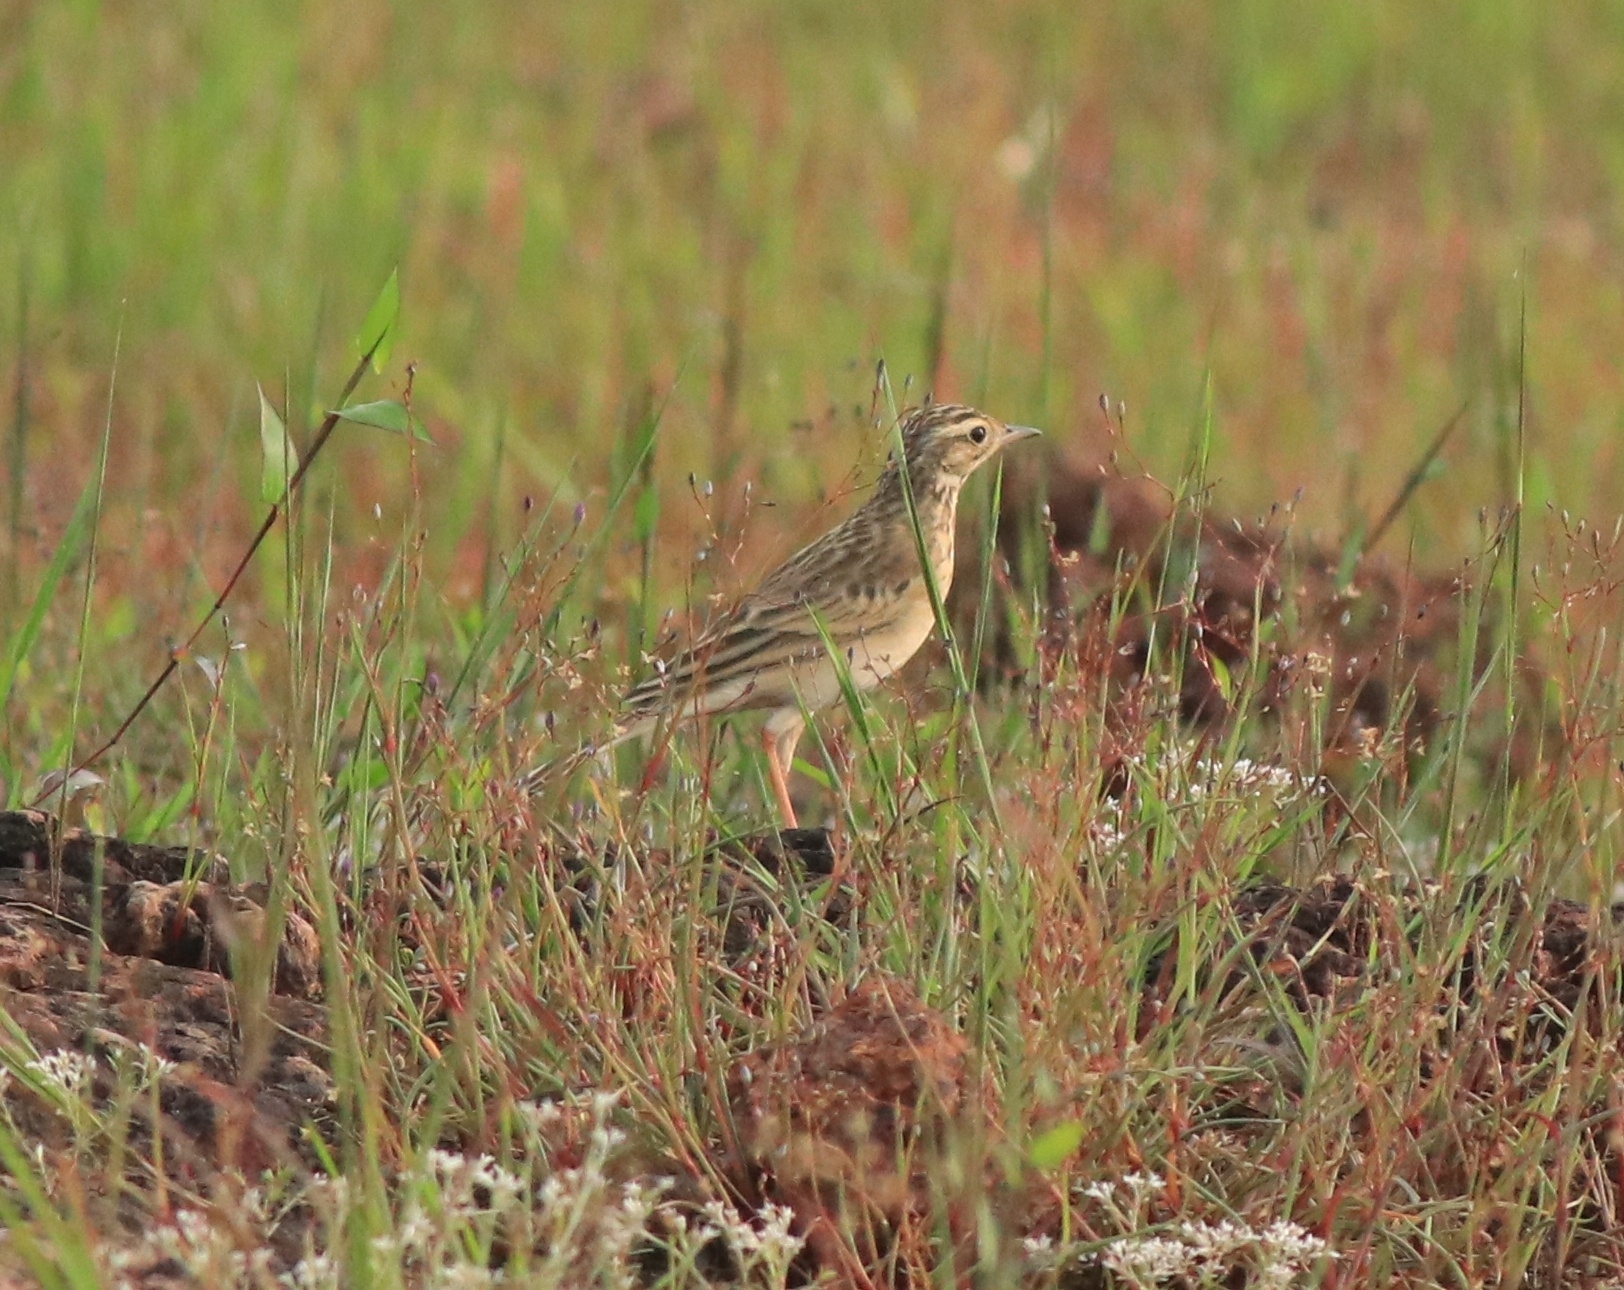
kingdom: Animalia
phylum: Chordata
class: Aves
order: Passeriformes
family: Motacillidae
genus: Anthus
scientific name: Anthus godlewskii
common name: Blyth's pipit
